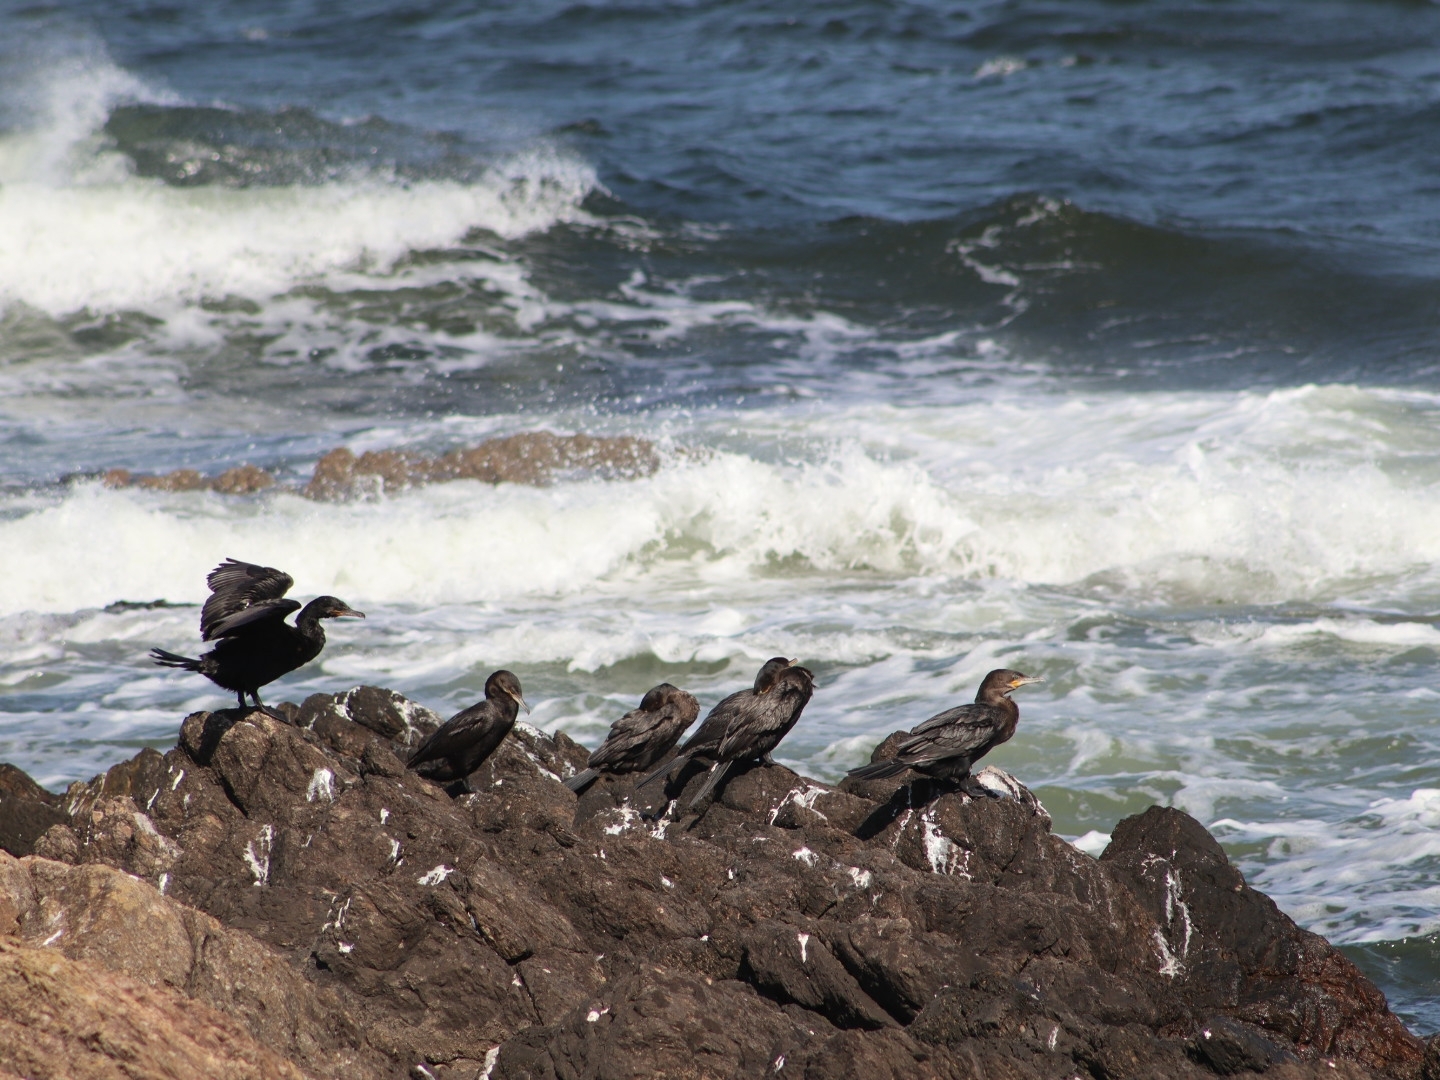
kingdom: Animalia
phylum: Chordata
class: Aves
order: Suliformes
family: Phalacrocoracidae
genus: Phalacrocorax
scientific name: Phalacrocorax brasilianus
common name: Neotropic cormorant
